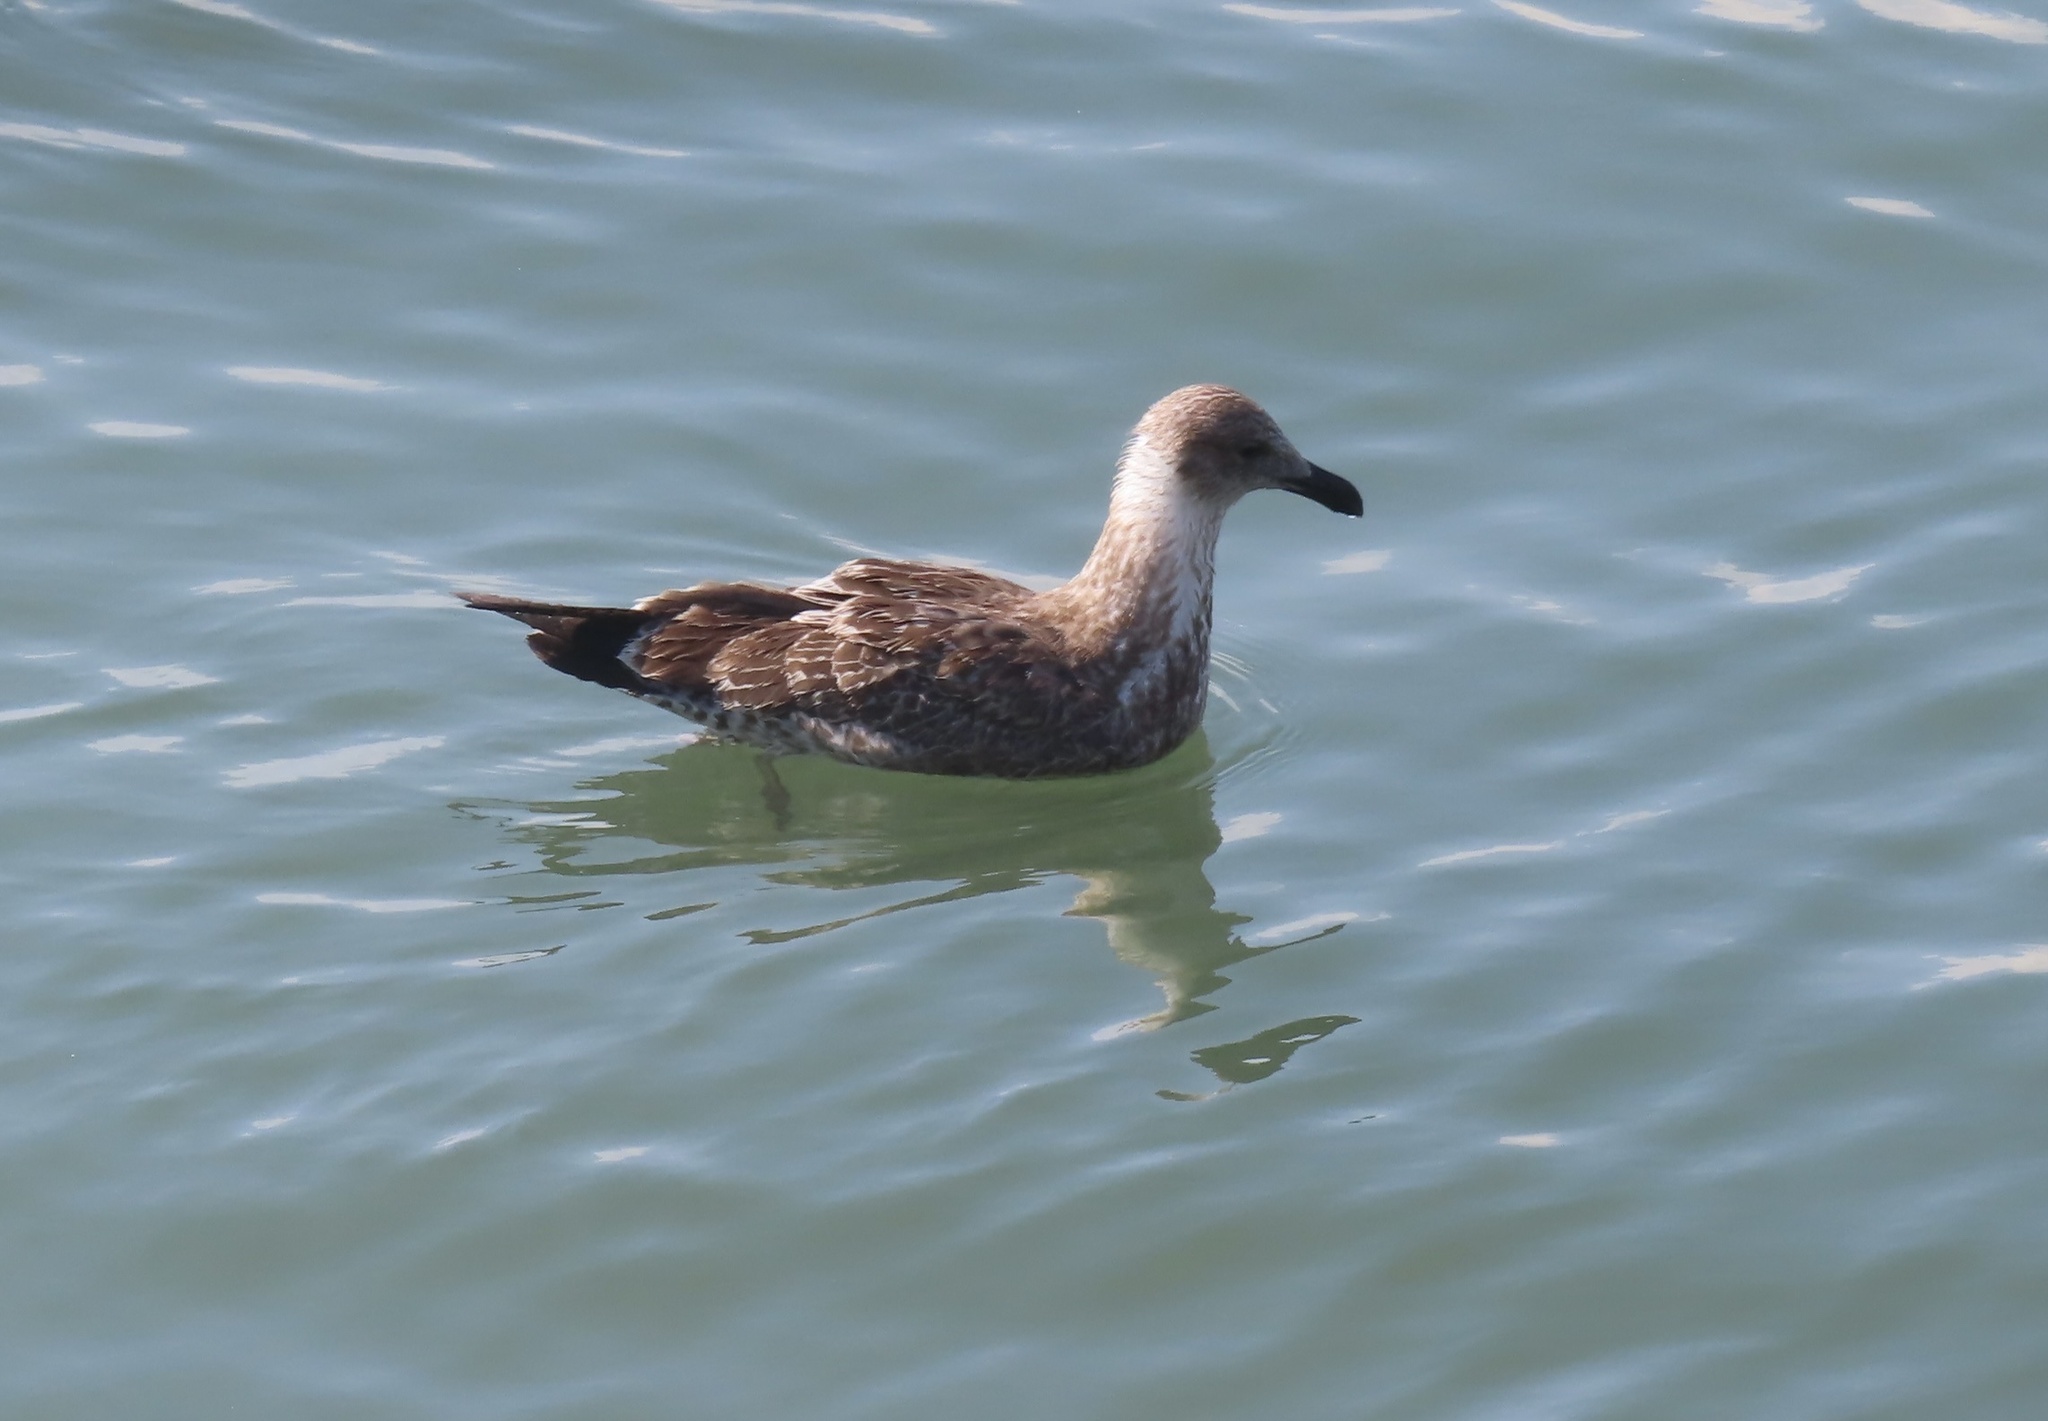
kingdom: Animalia
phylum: Chordata
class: Aves
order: Charadriiformes
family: Laridae
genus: Larus
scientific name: Larus dominicanus
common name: Kelp gull
